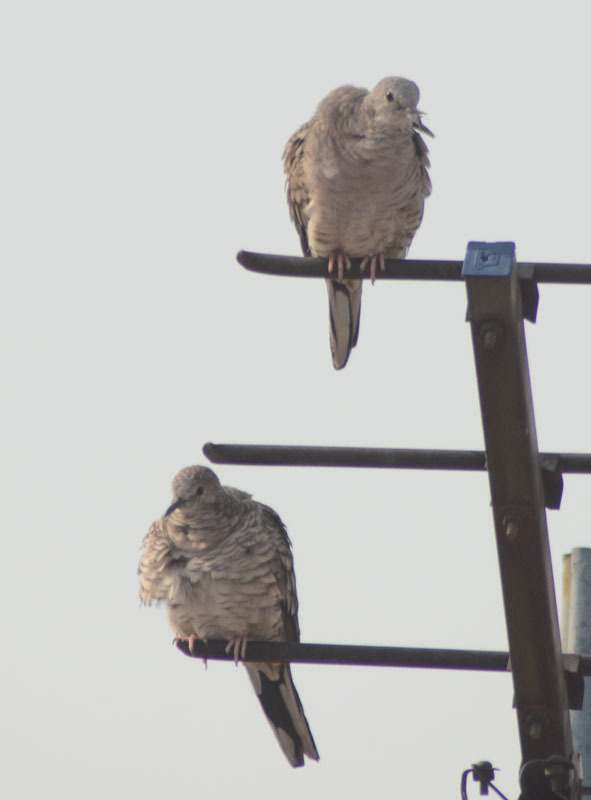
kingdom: Animalia
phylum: Chordata
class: Aves
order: Columbiformes
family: Columbidae
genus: Columbina
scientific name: Columbina inca
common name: Inca dove
